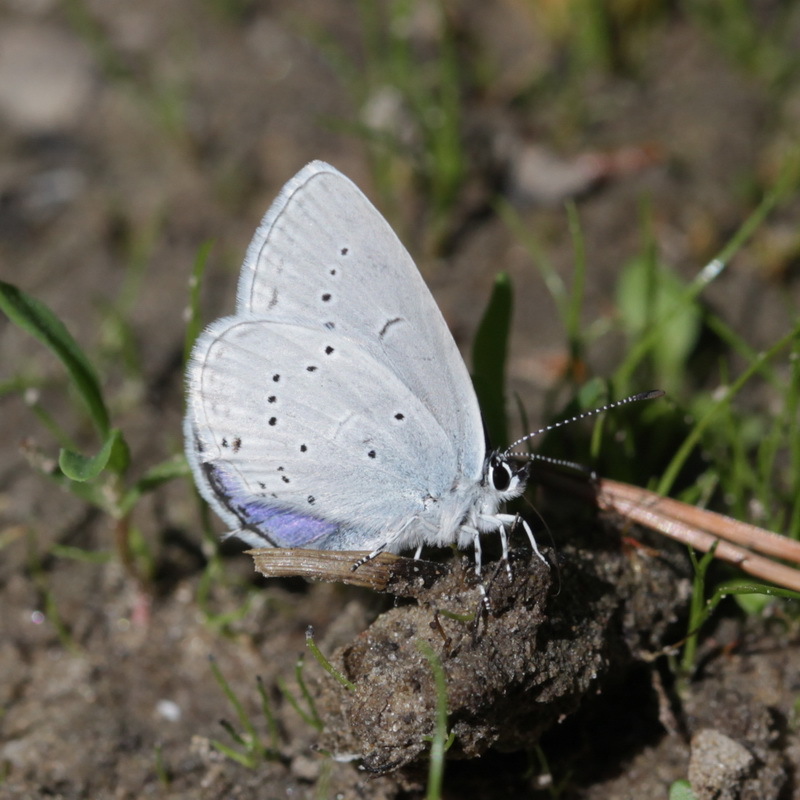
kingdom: Animalia
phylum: Arthropoda
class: Insecta
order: Lepidoptera
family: Lycaenidae
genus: Elkalyce
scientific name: Elkalyce alcetas
